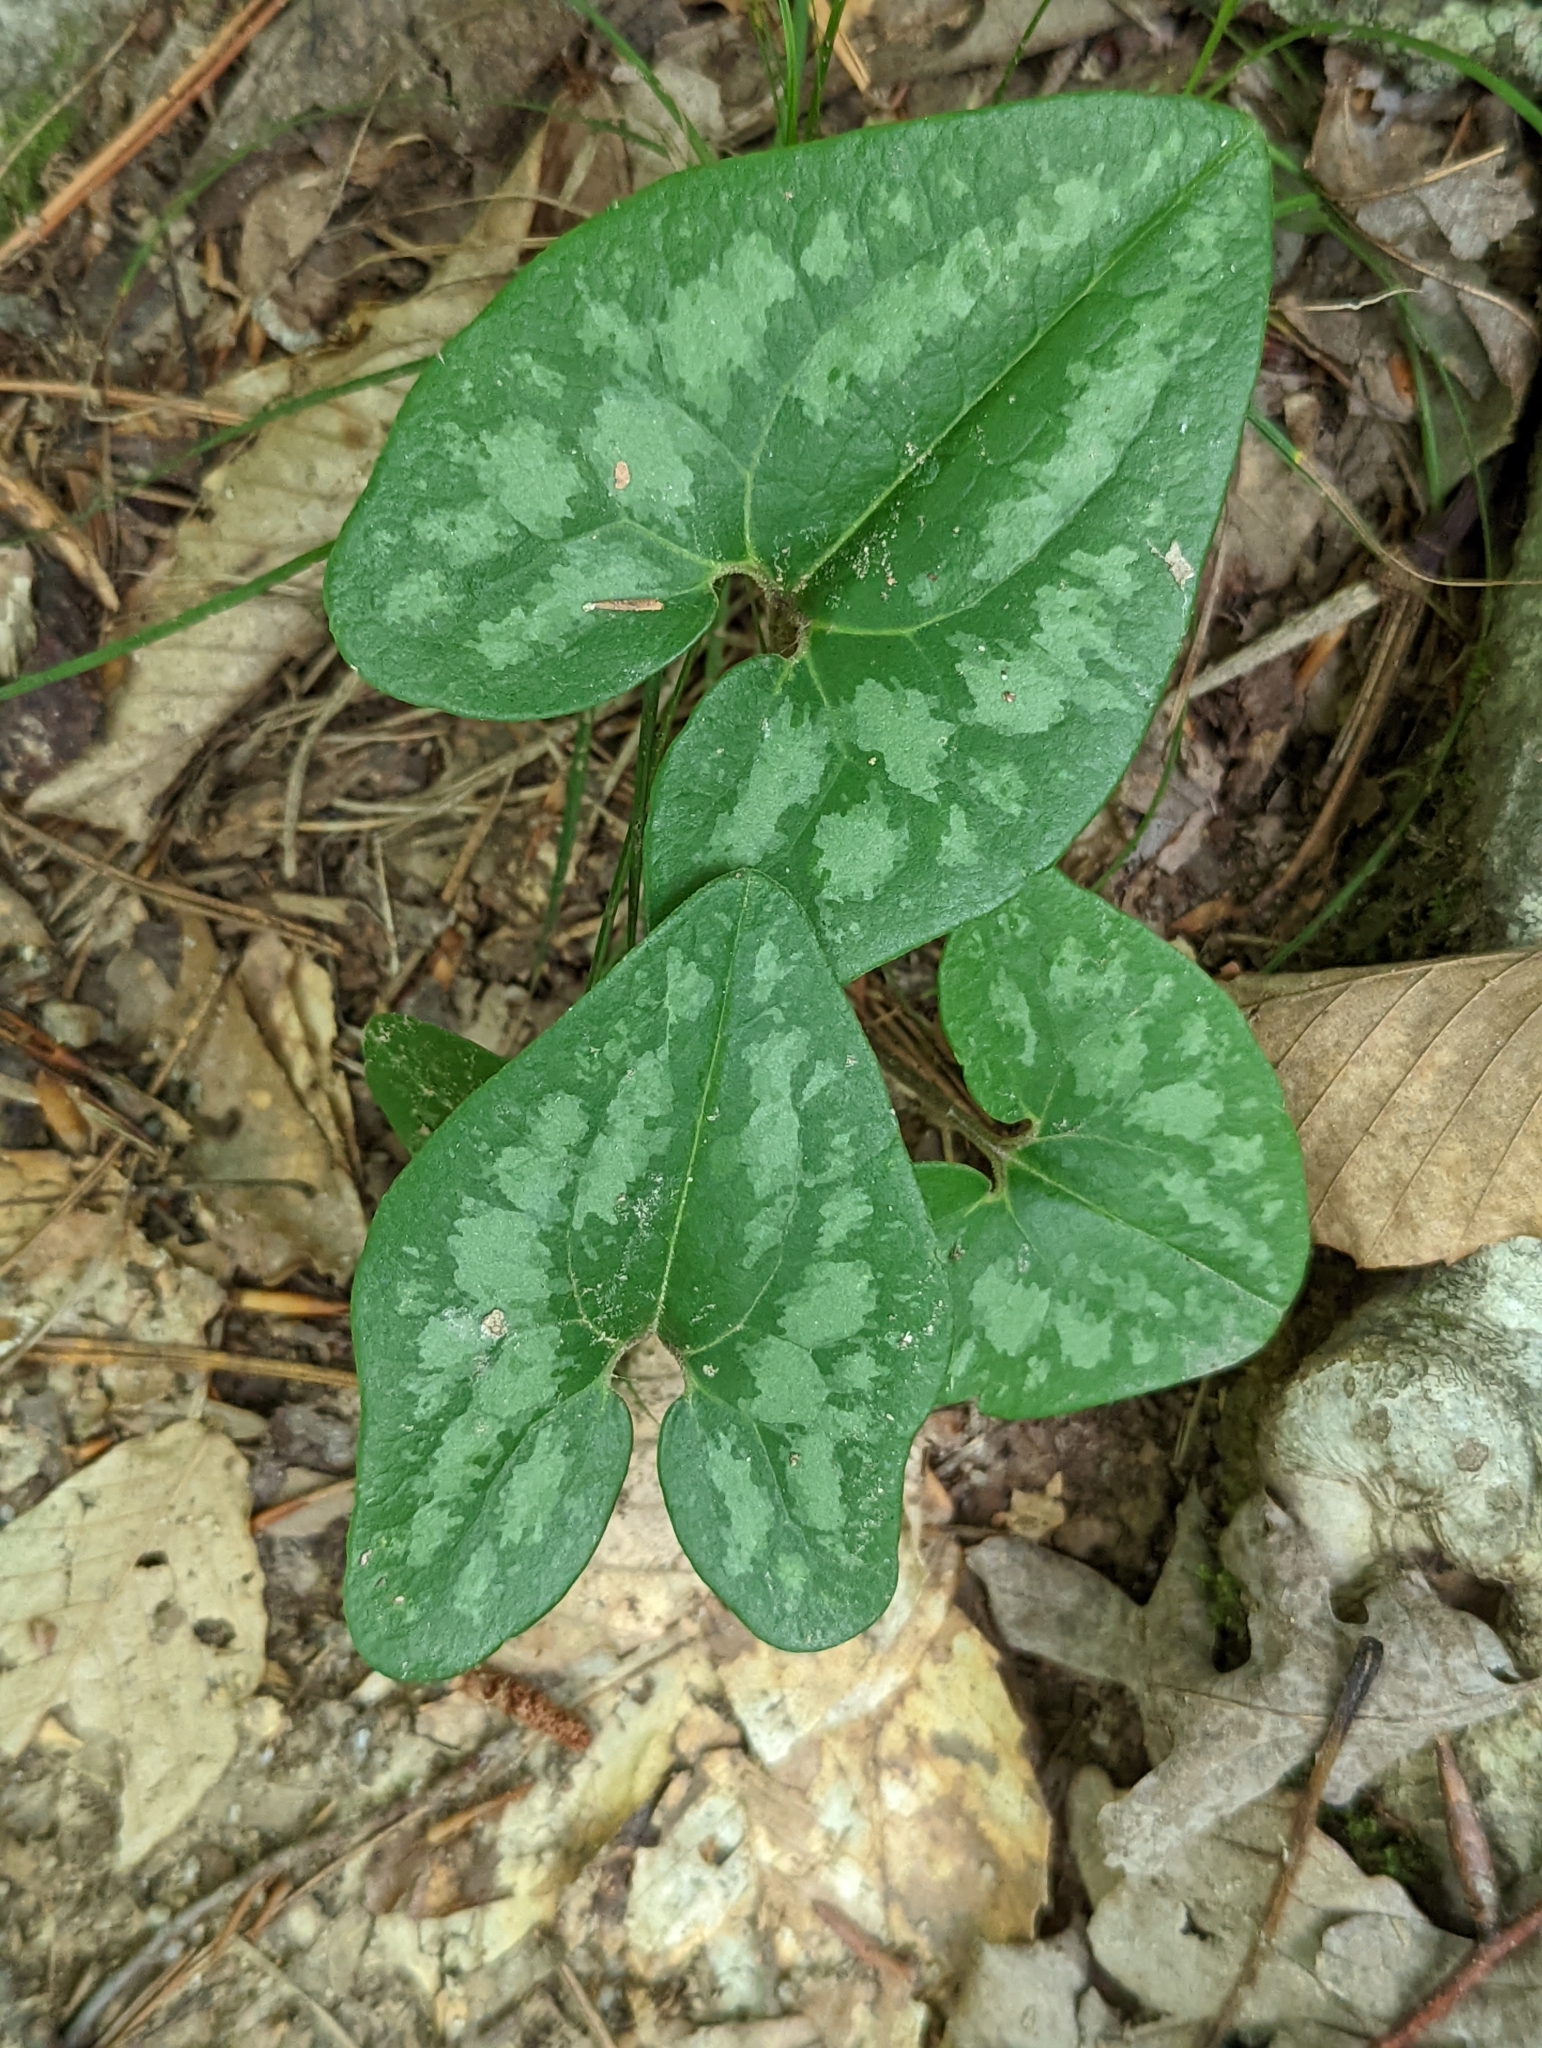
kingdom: Plantae
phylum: Tracheophyta
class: Magnoliopsida
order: Piperales
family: Aristolochiaceae
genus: Hexastylis
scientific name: Hexastylis arifolia
